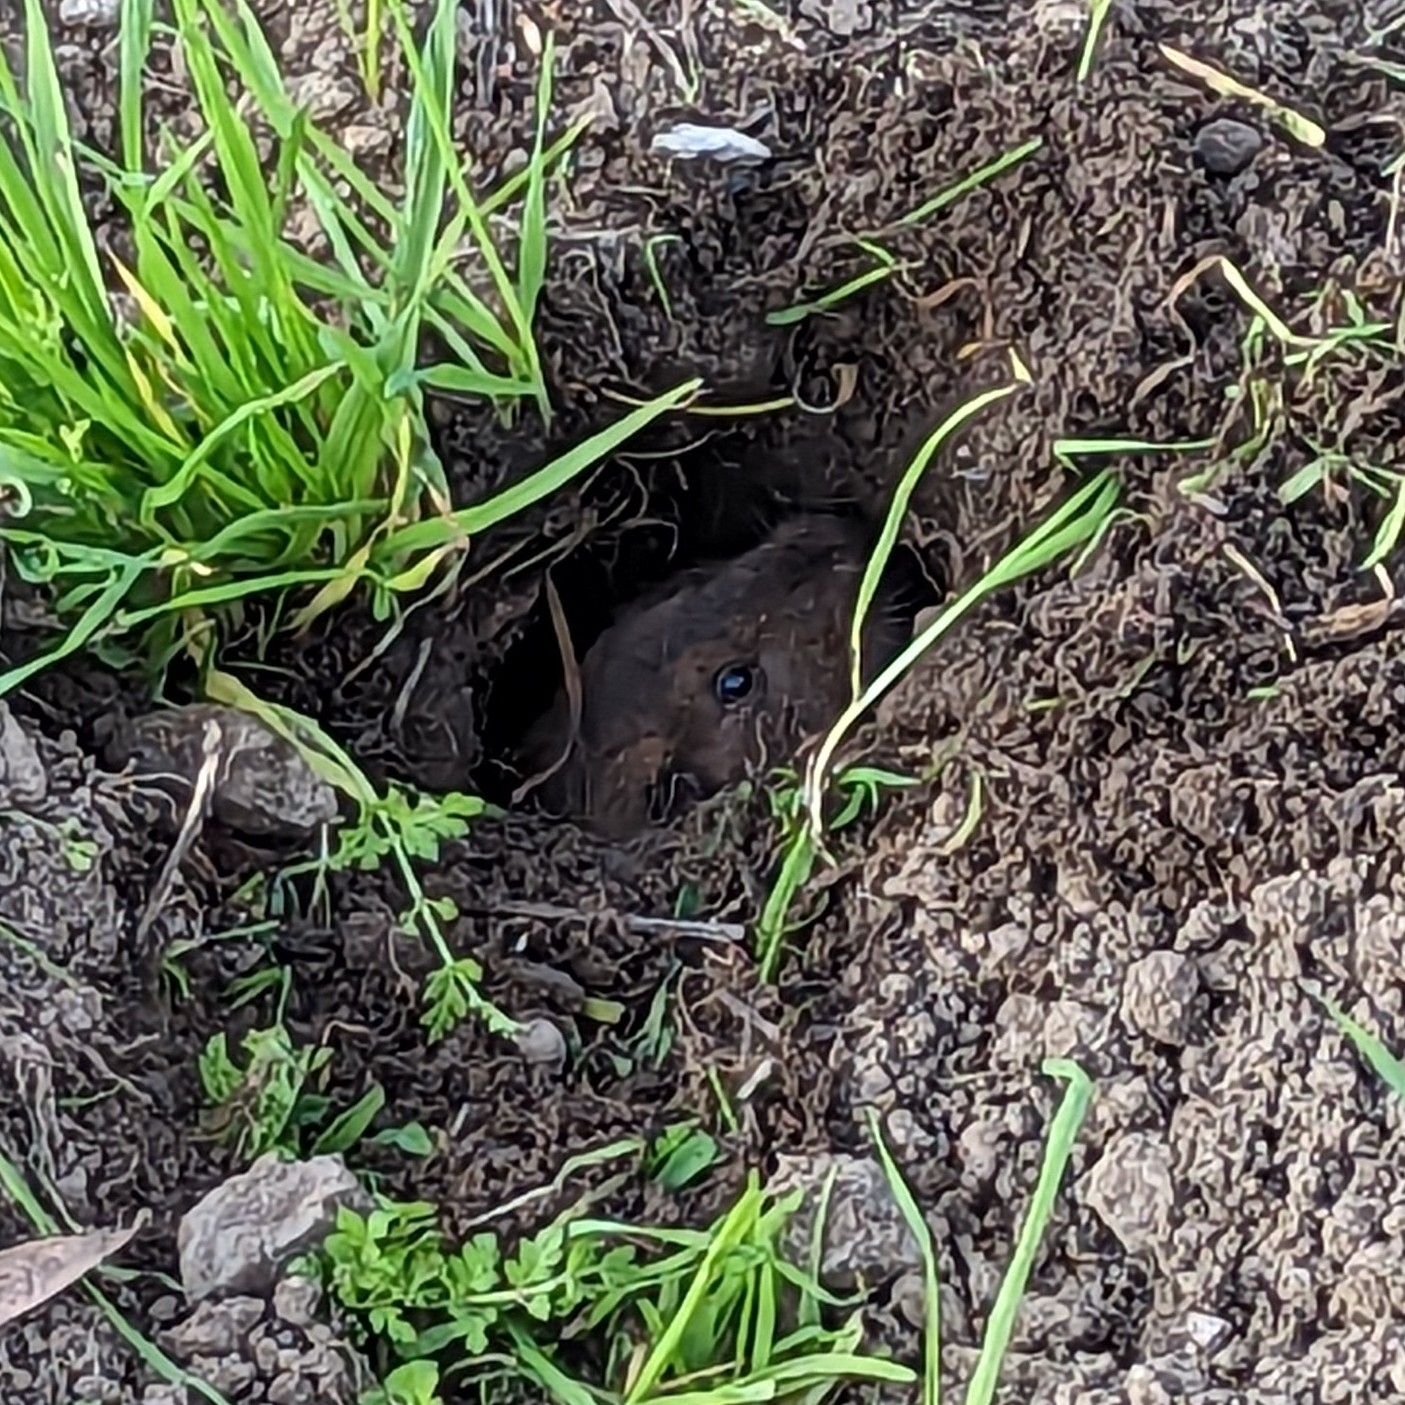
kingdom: Animalia
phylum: Chordata
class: Mammalia
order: Rodentia
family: Geomyidae
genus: Thomomys
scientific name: Thomomys bottae
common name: Botta's pocket gopher
